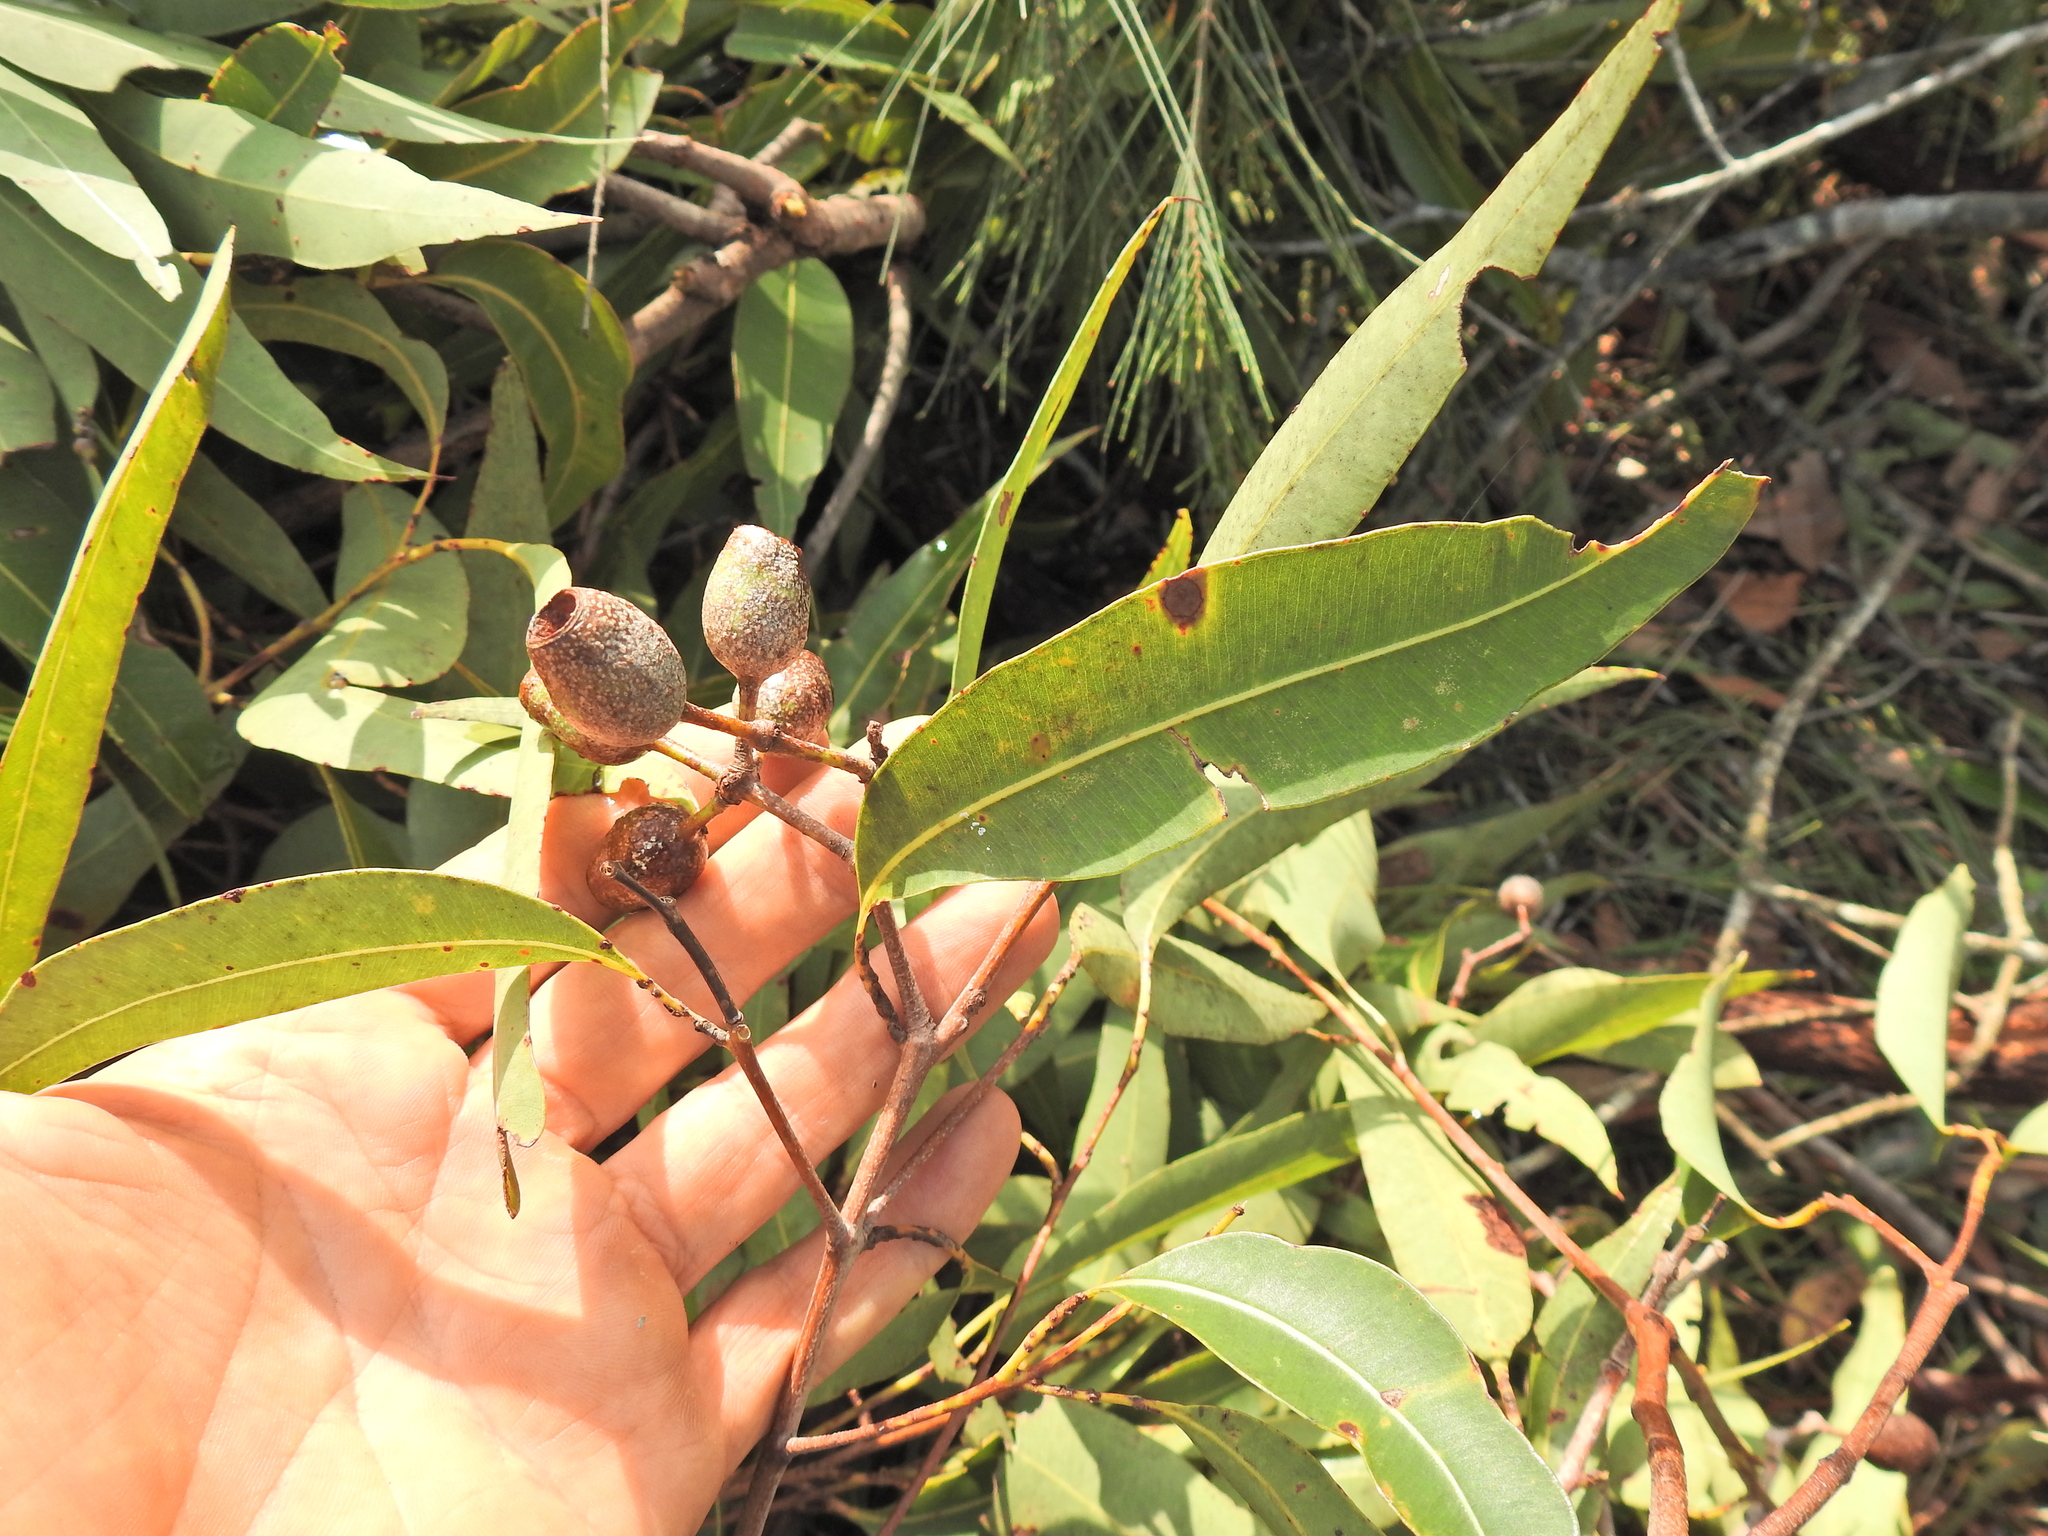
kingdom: Plantae
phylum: Tracheophyta
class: Magnoliopsida
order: Myrtales
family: Myrtaceae
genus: Corymbia
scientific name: Corymbia intermedia
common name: Pink-bloodwood
